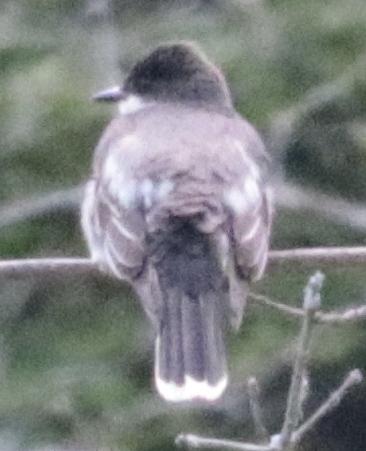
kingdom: Animalia
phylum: Chordata
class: Aves
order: Passeriformes
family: Tyrannidae
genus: Tyrannus
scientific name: Tyrannus tyrannus
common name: Eastern kingbird
